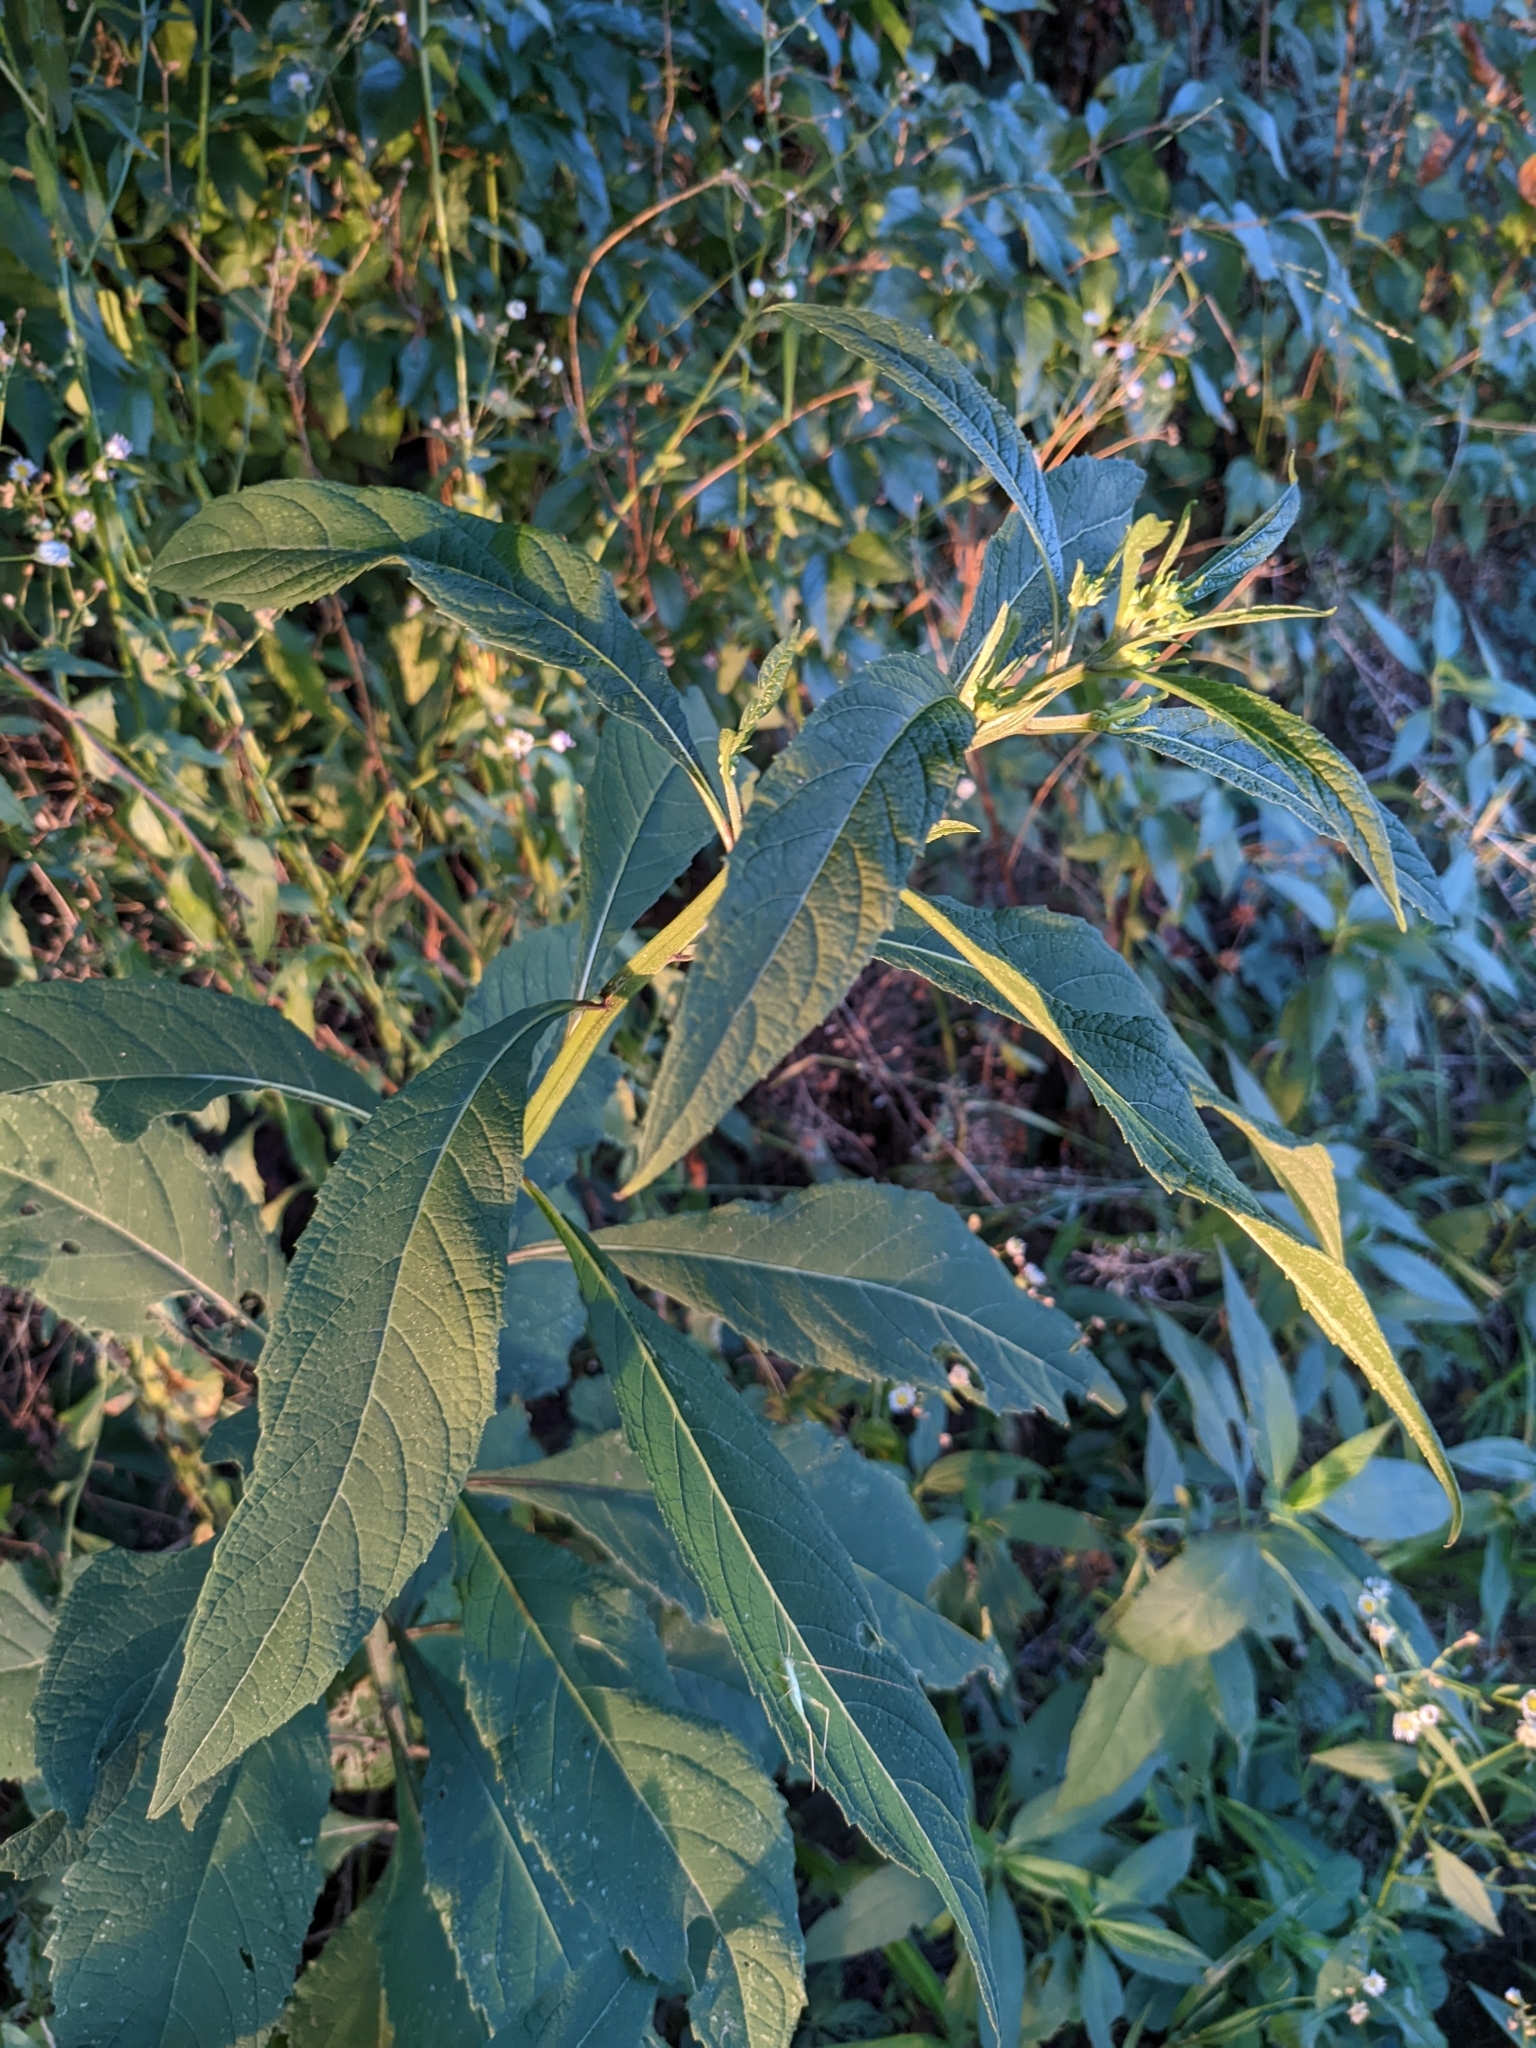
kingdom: Plantae
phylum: Tracheophyta
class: Magnoliopsida
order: Asterales
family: Asteraceae
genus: Verbesina
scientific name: Verbesina alternifolia
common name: Wingstem
